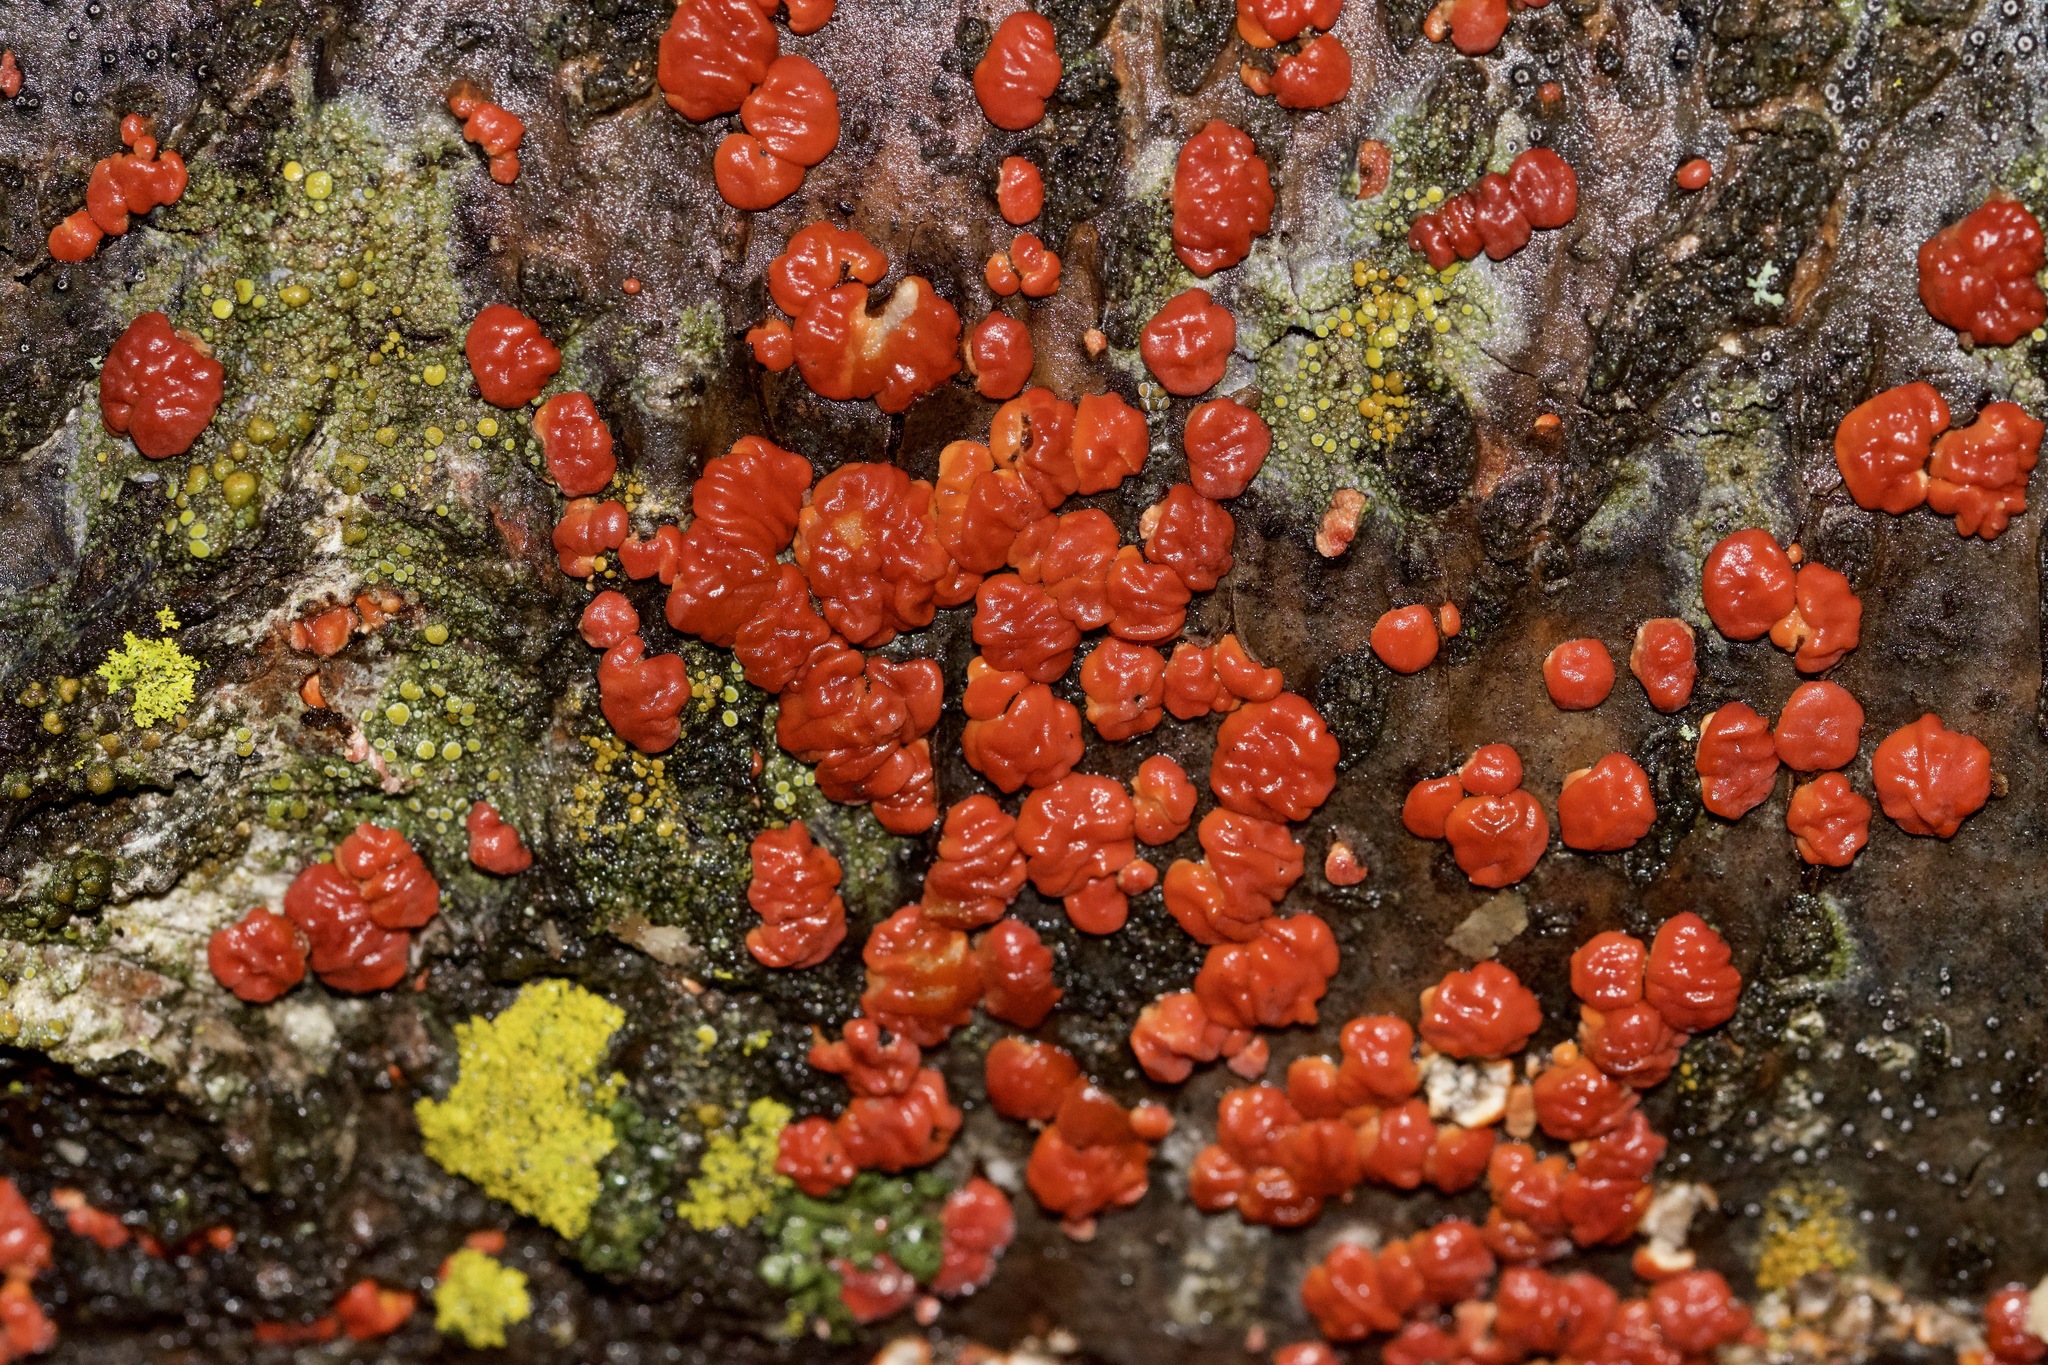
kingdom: Fungi
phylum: Basidiomycota
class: Agaricomycetes
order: Russulales
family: Peniophoraceae
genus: Peniophora
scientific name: Peniophora rufa
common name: Red tree brain fungus
